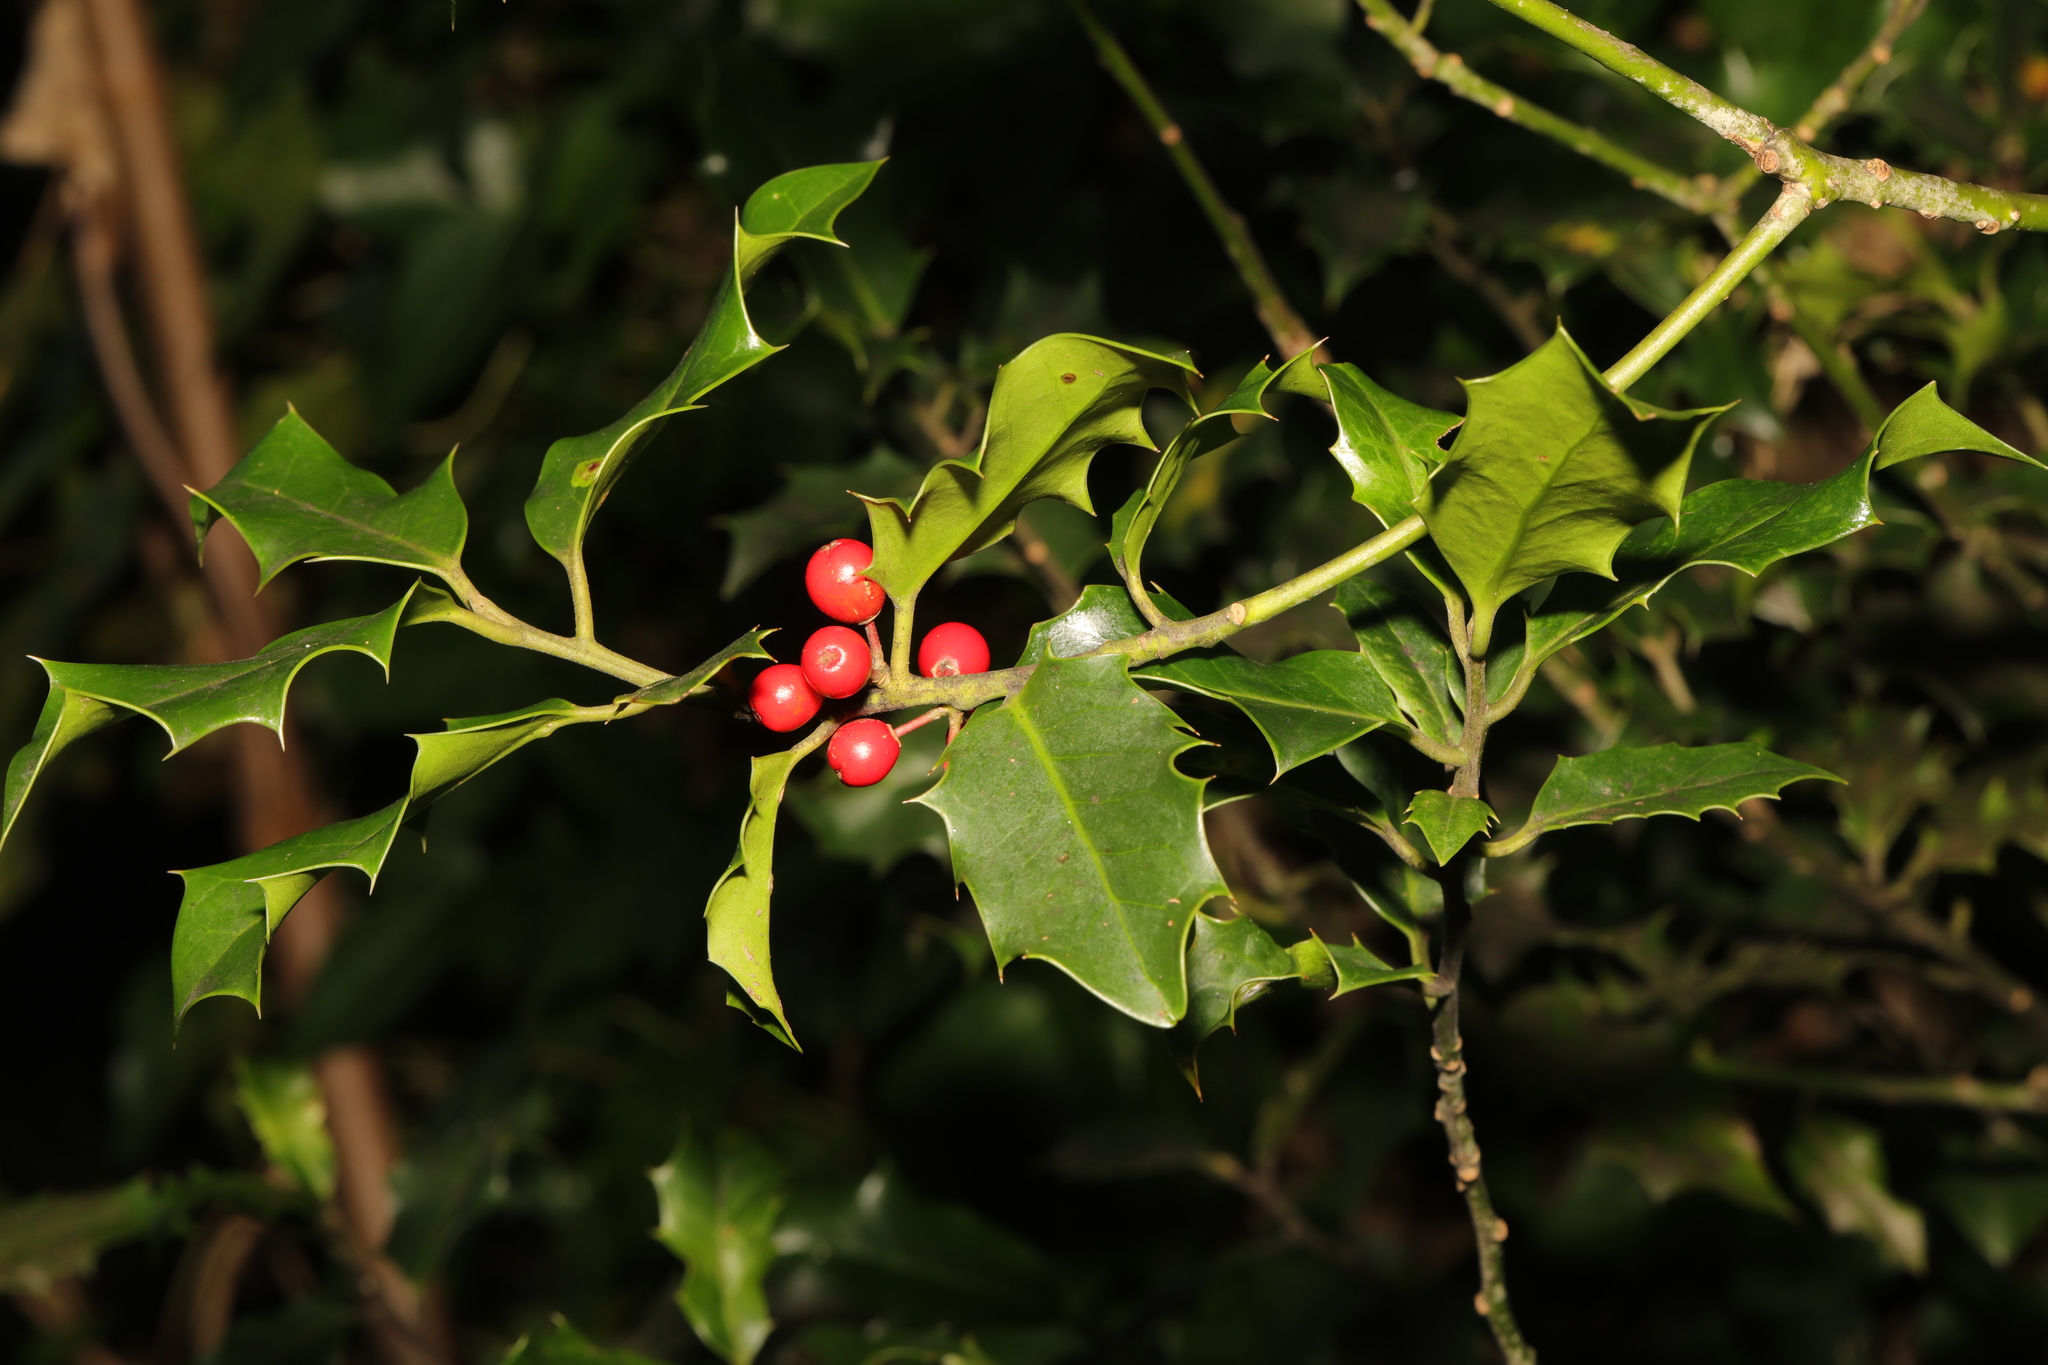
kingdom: Plantae
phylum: Tracheophyta
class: Magnoliopsida
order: Aquifoliales
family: Aquifoliaceae
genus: Ilex
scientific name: Ilex aquifolium
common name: English holly
